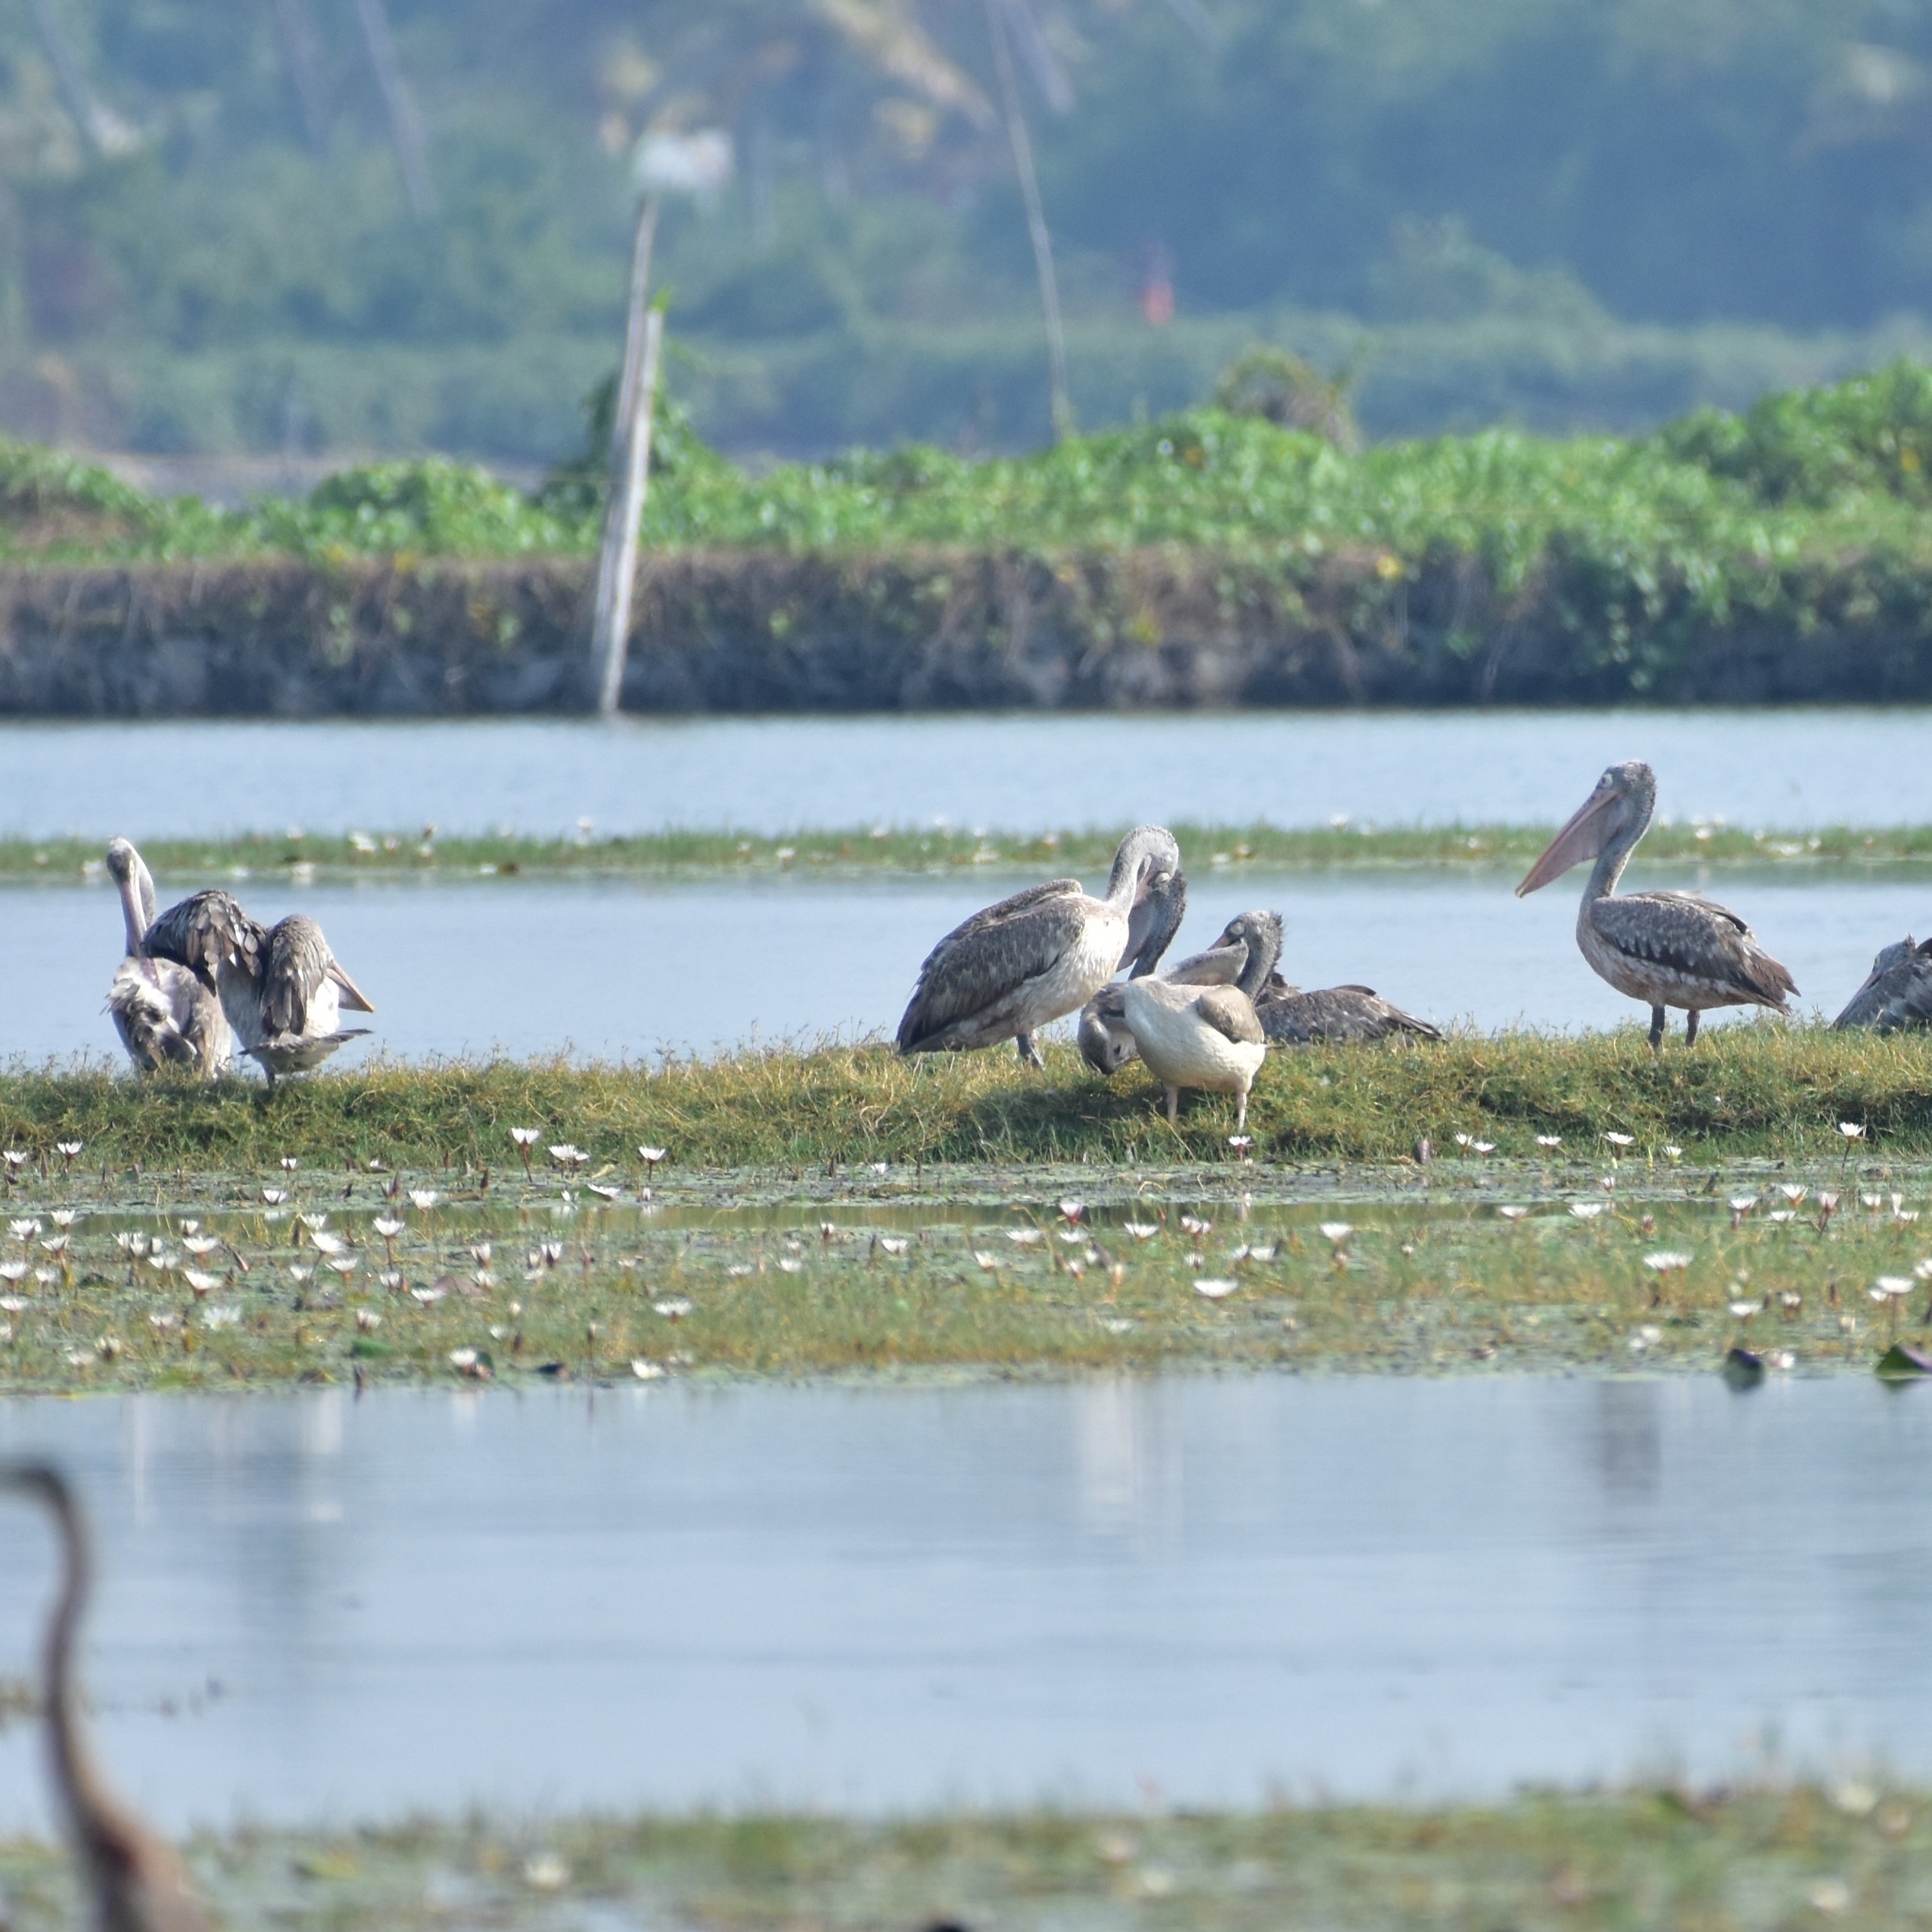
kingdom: Animalia
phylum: Chordata
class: Aves
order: Pelecaniformes
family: Pelecanidae
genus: Pelecanus
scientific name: Pelecanus philippensis
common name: Spot-billed pelican
